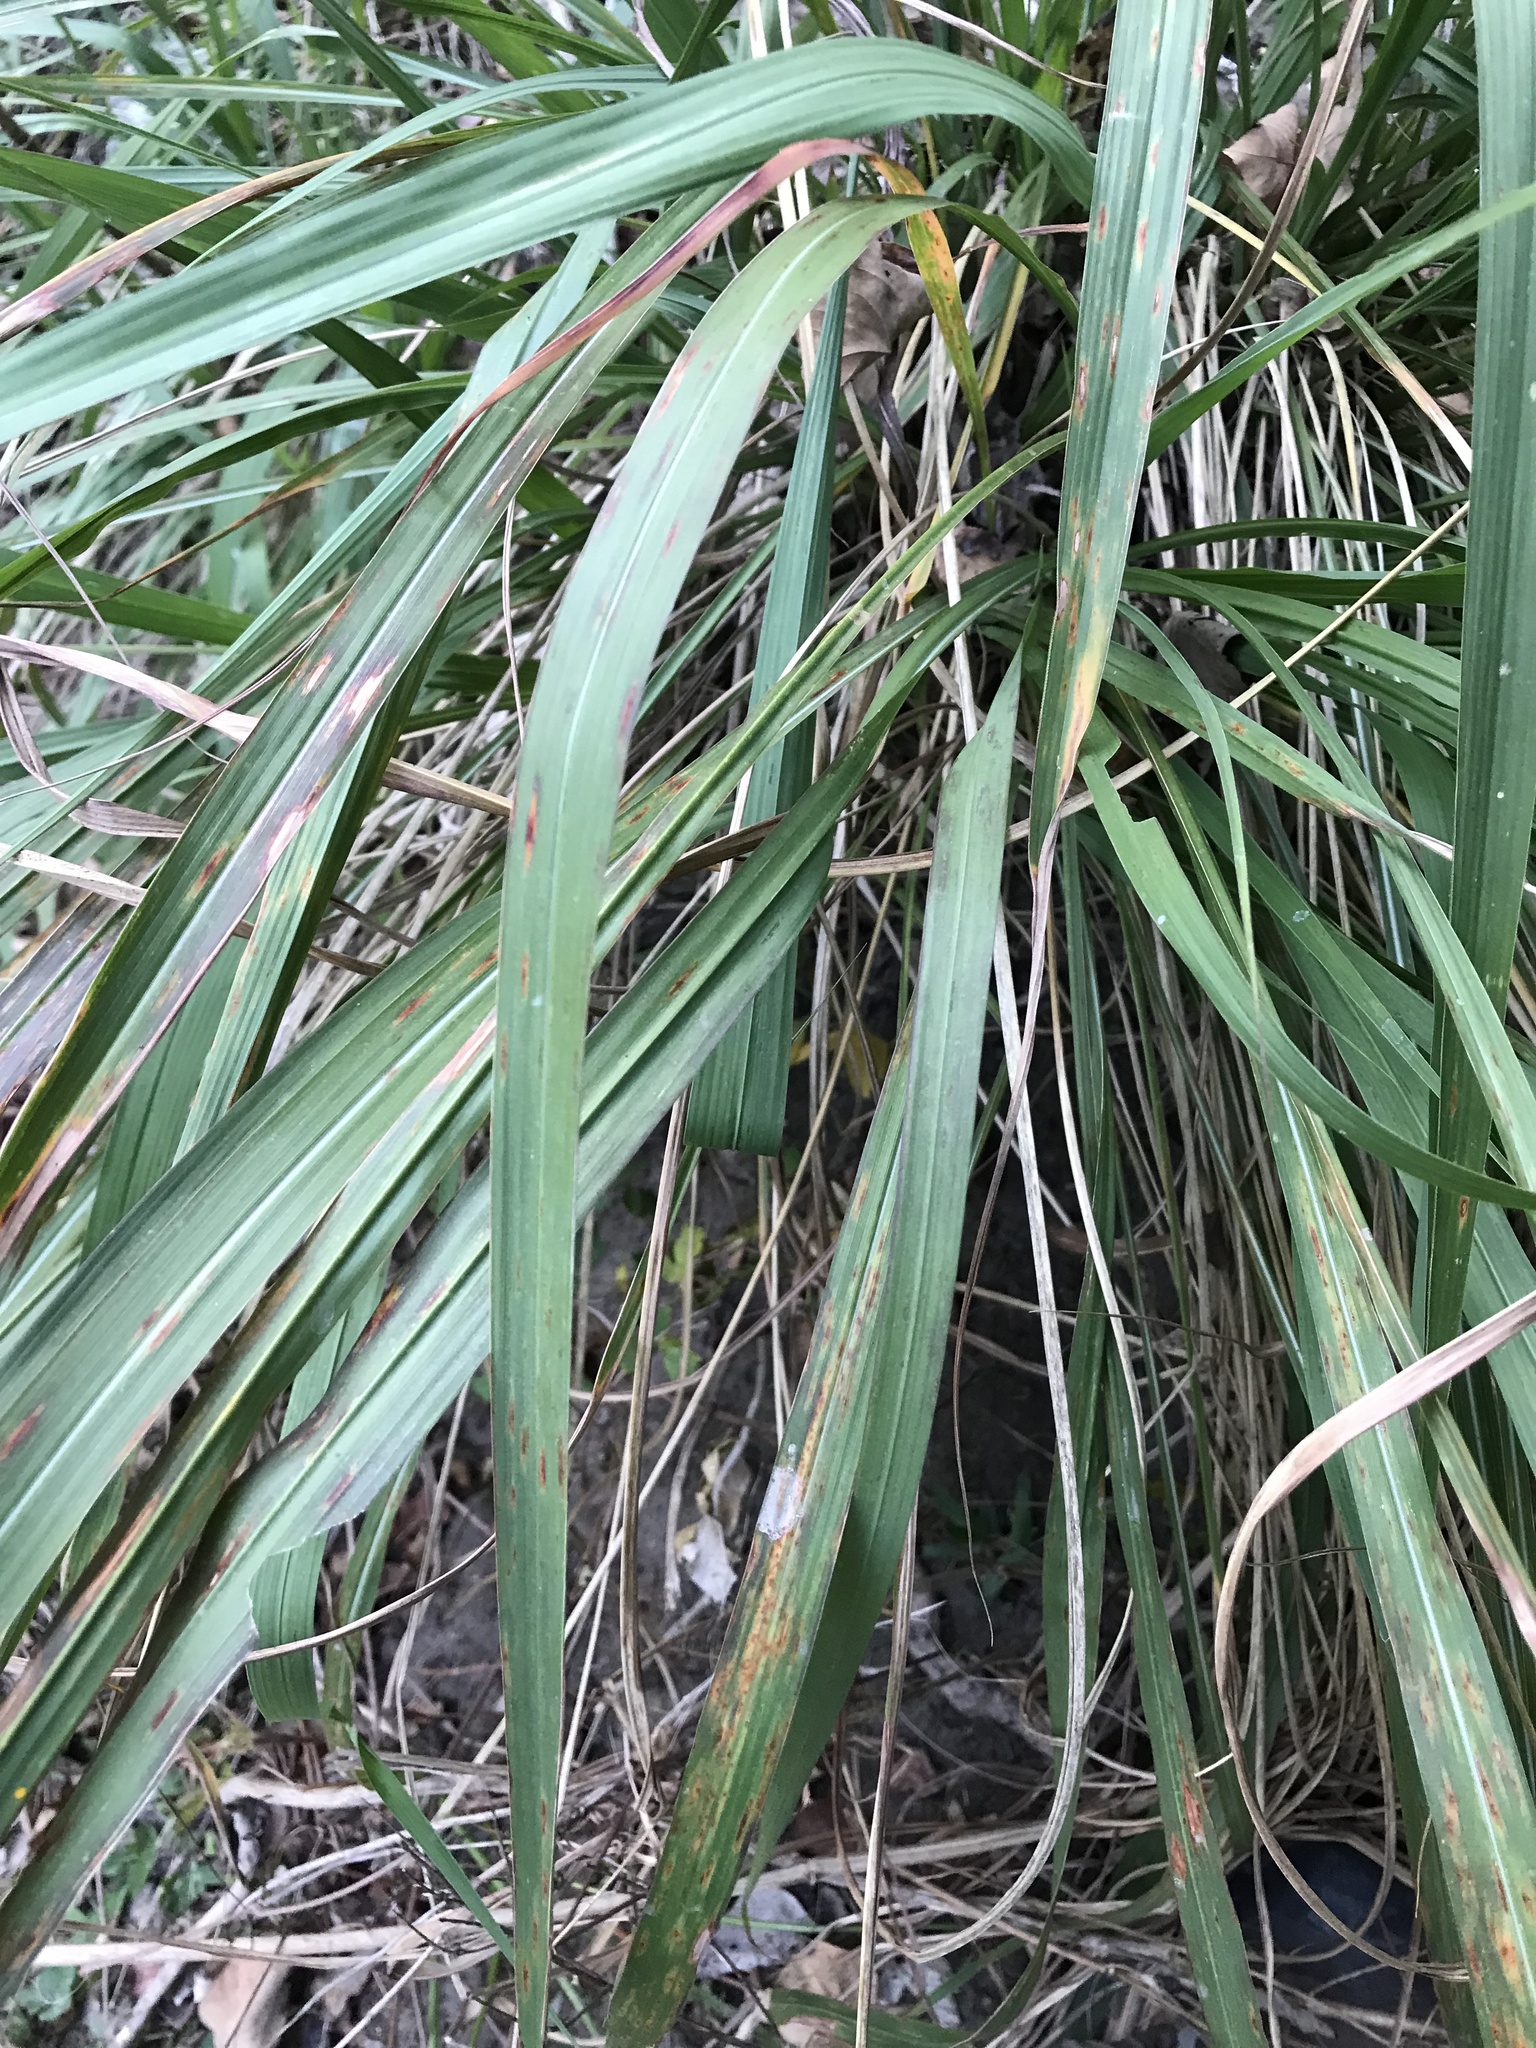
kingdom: Plantae
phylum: Tracheophyta
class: Liliopsida
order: Poales
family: Poaceae
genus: Tripsacum
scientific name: Tripsacum dactyloides
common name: Buffalo-grass
